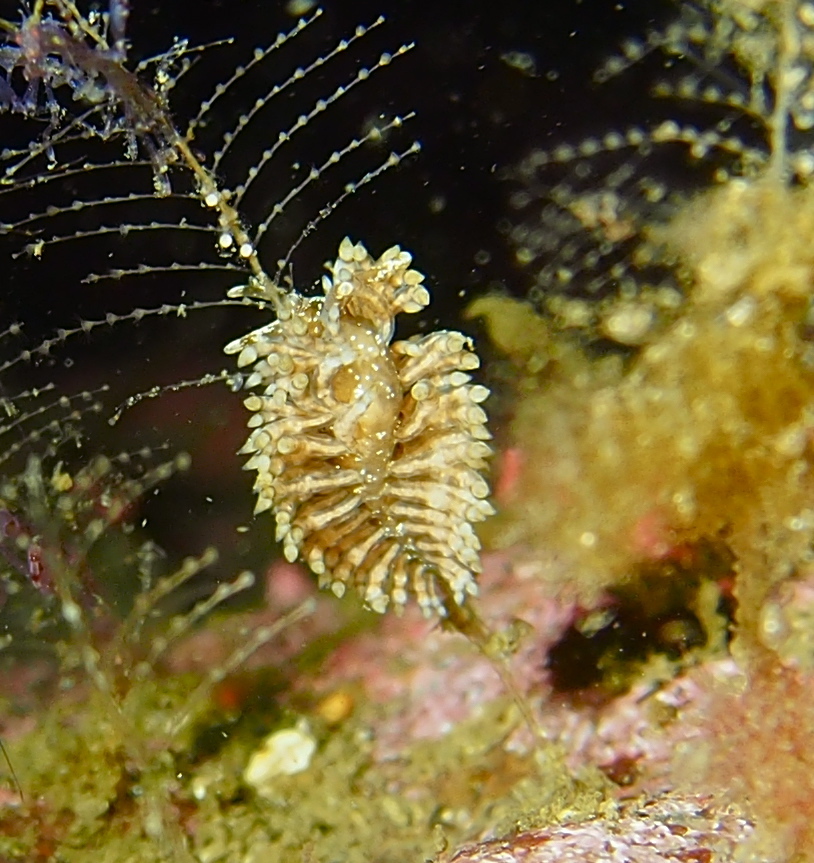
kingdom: Animalia
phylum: Mollusca
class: Gastropoda
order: Nudibranchia
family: Eubranchidae
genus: Eubranchus
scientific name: Eubranchus vittatus
